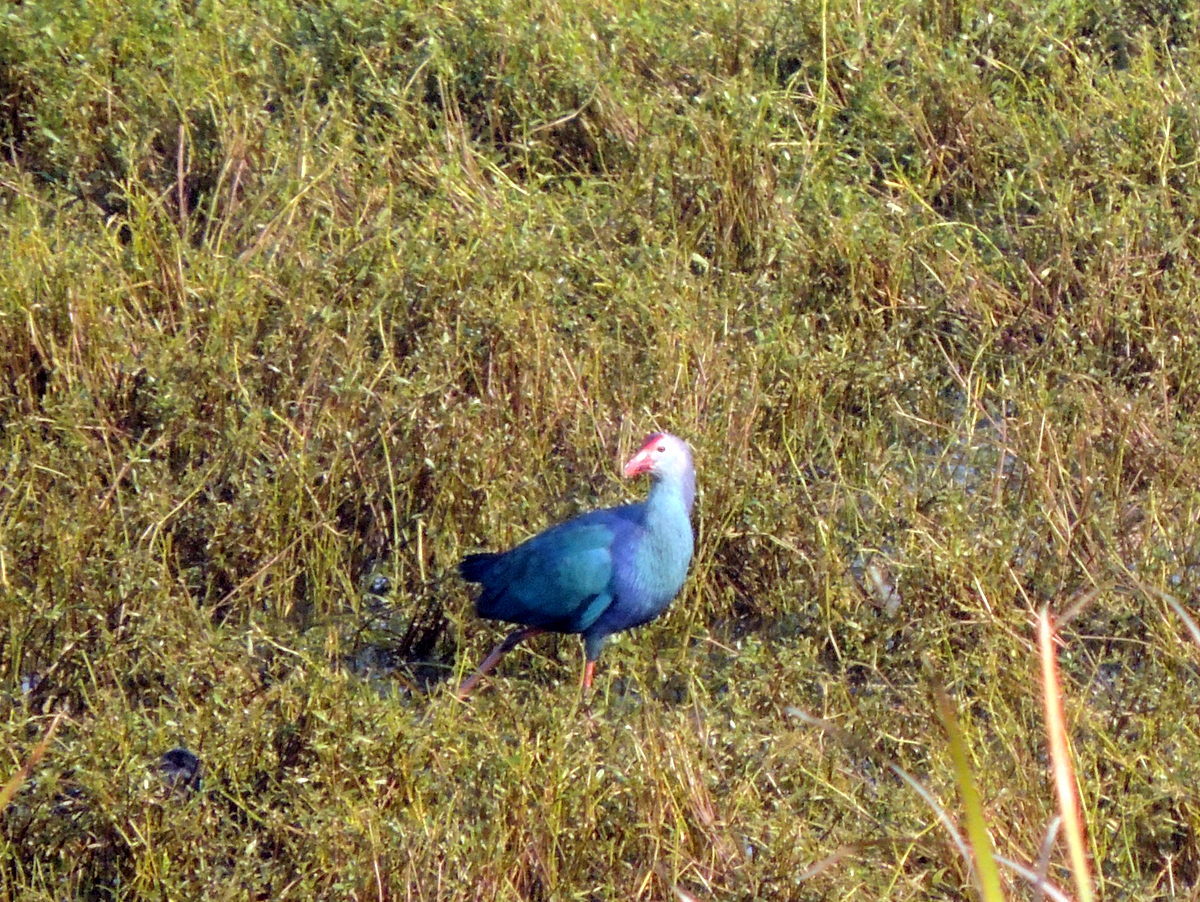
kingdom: Animalia
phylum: Chordata
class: Aves
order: Gruiformes
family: Rallidae
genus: Porphyrio
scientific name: Porphyrio porphyrio
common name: Purple swamphen
